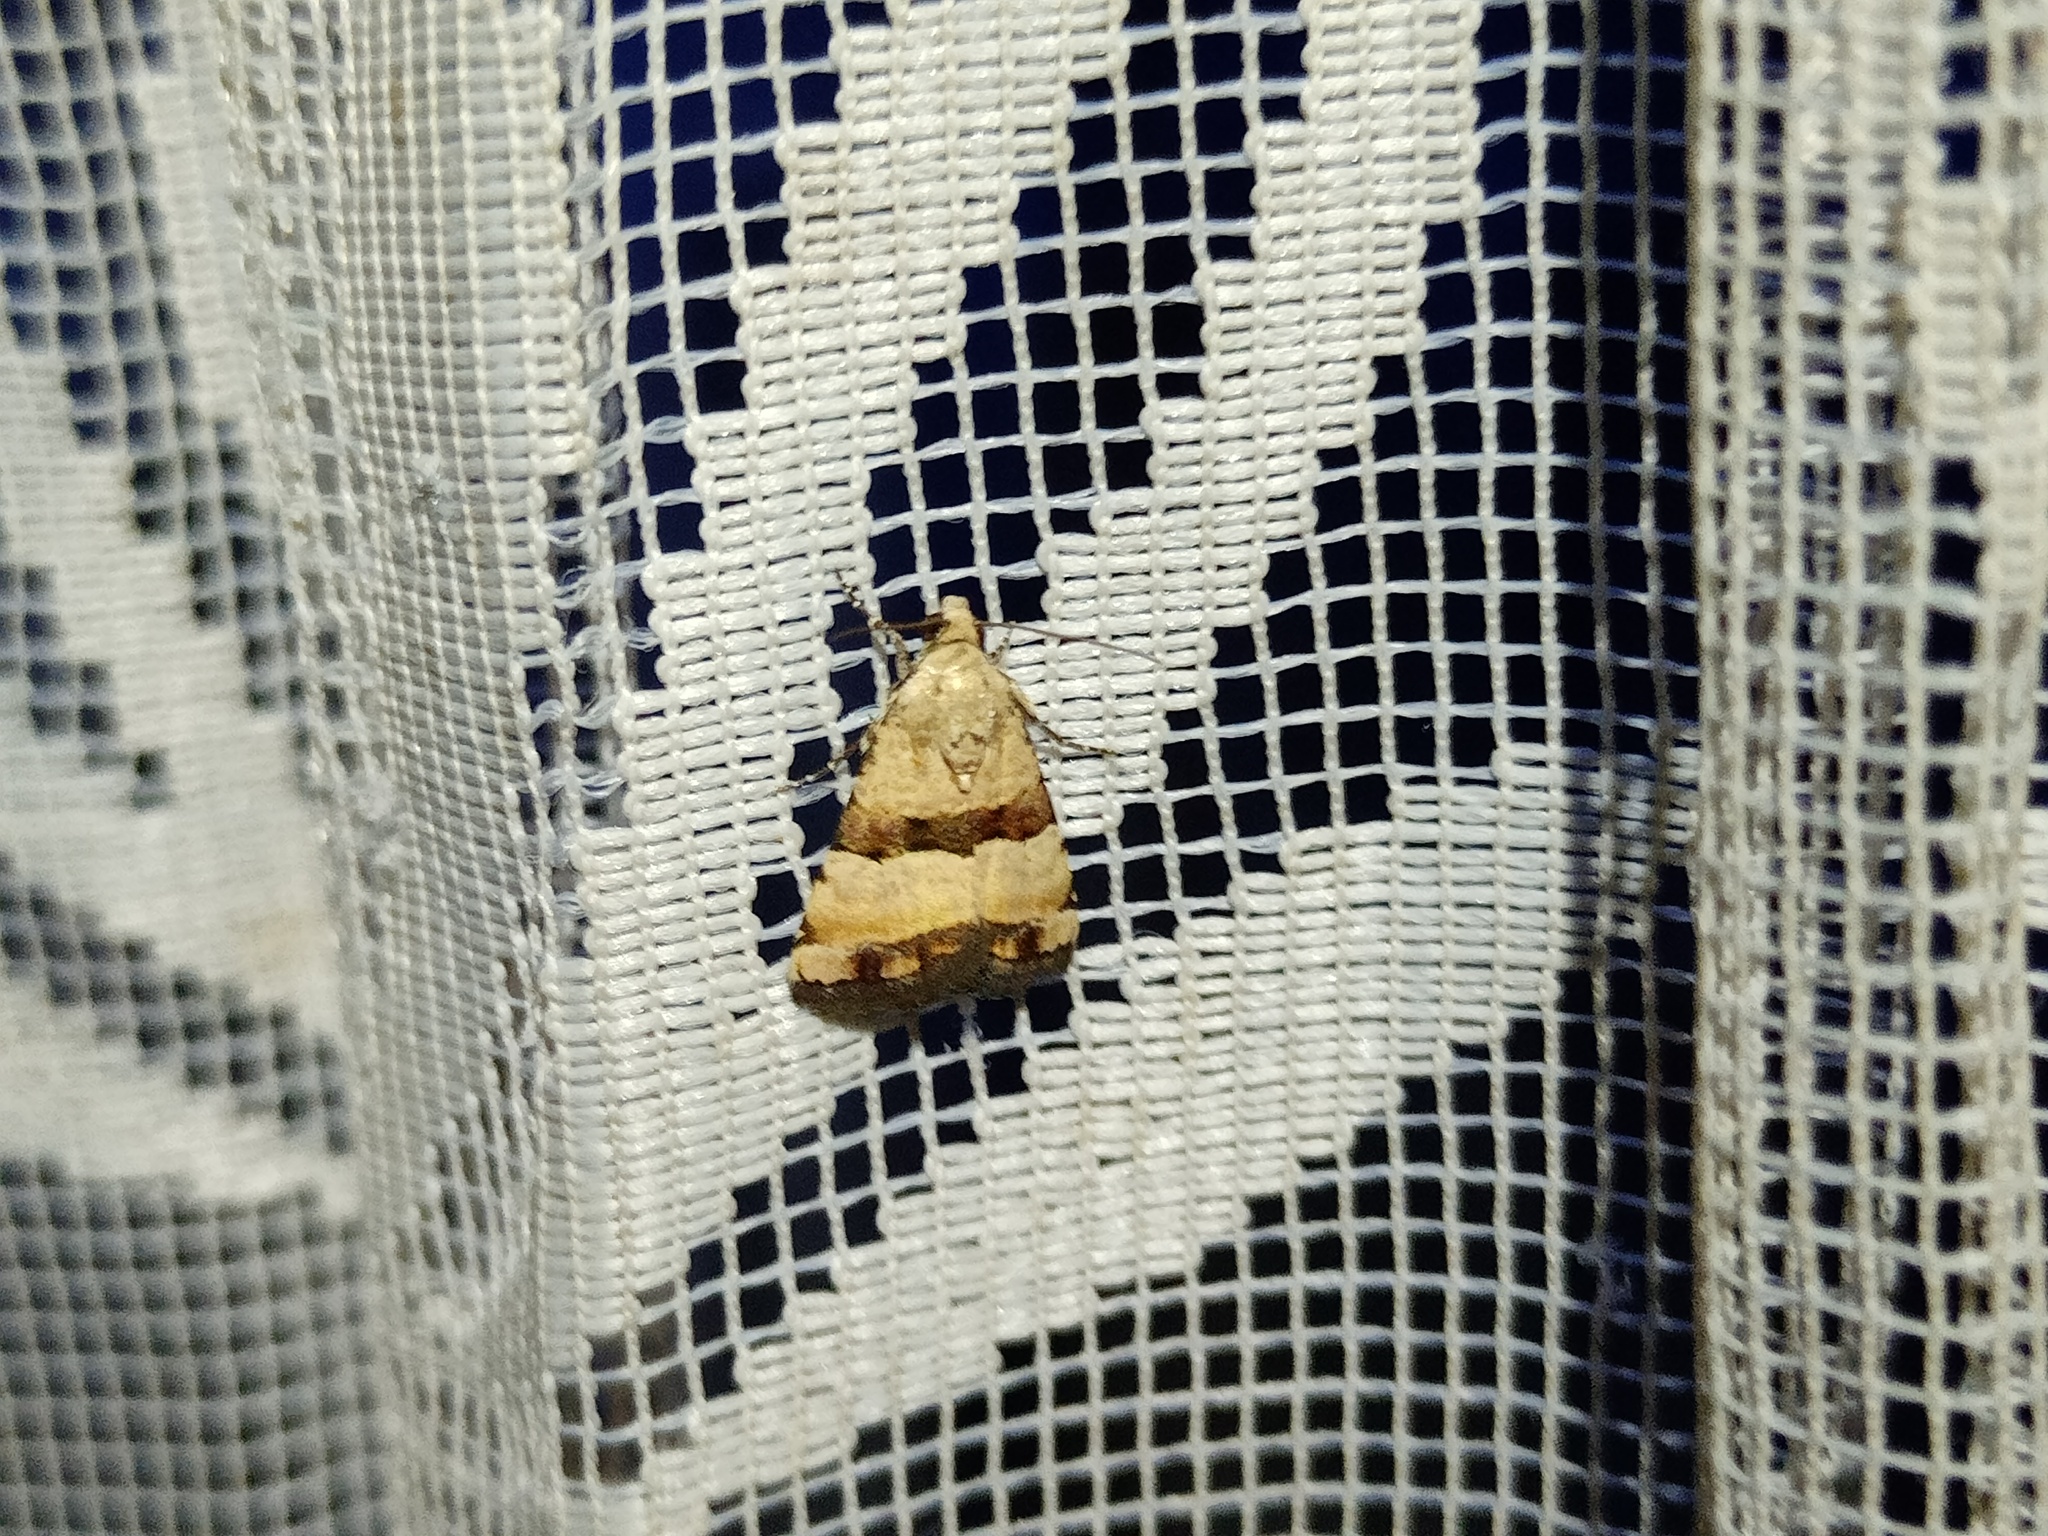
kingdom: Animalia
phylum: Arthropoda
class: Insecta
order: Lepidoptera
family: Noctuidae
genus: Pseudozarba
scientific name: Pseudozarba bipartita
